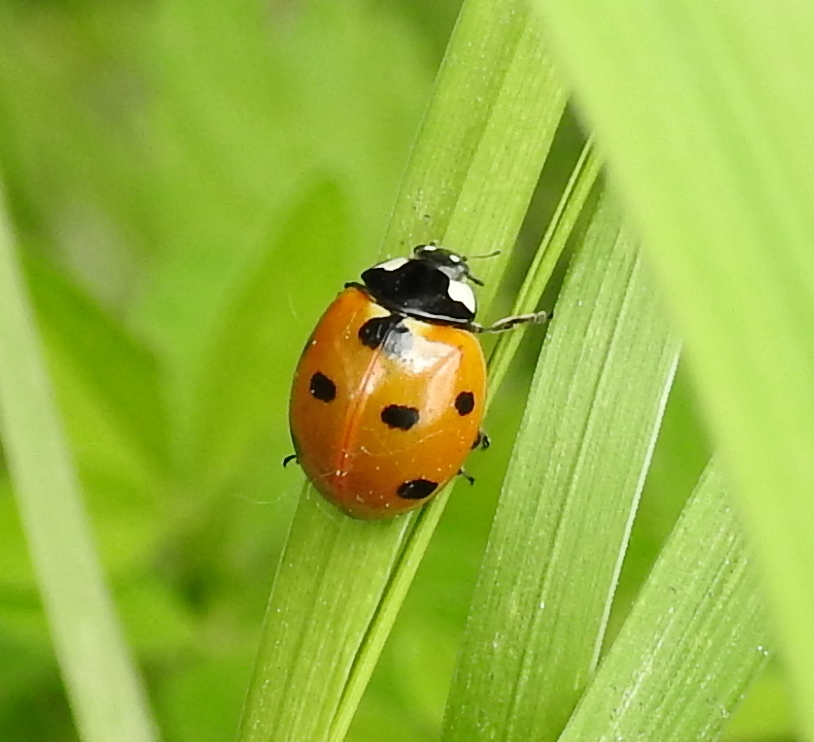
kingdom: Animalia
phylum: Arthropoda
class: Insecta
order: Coleoptera
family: Coccinellidae
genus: Coccinella
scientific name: Coccinella septempunctata
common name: Sevenspotted lady beetle
